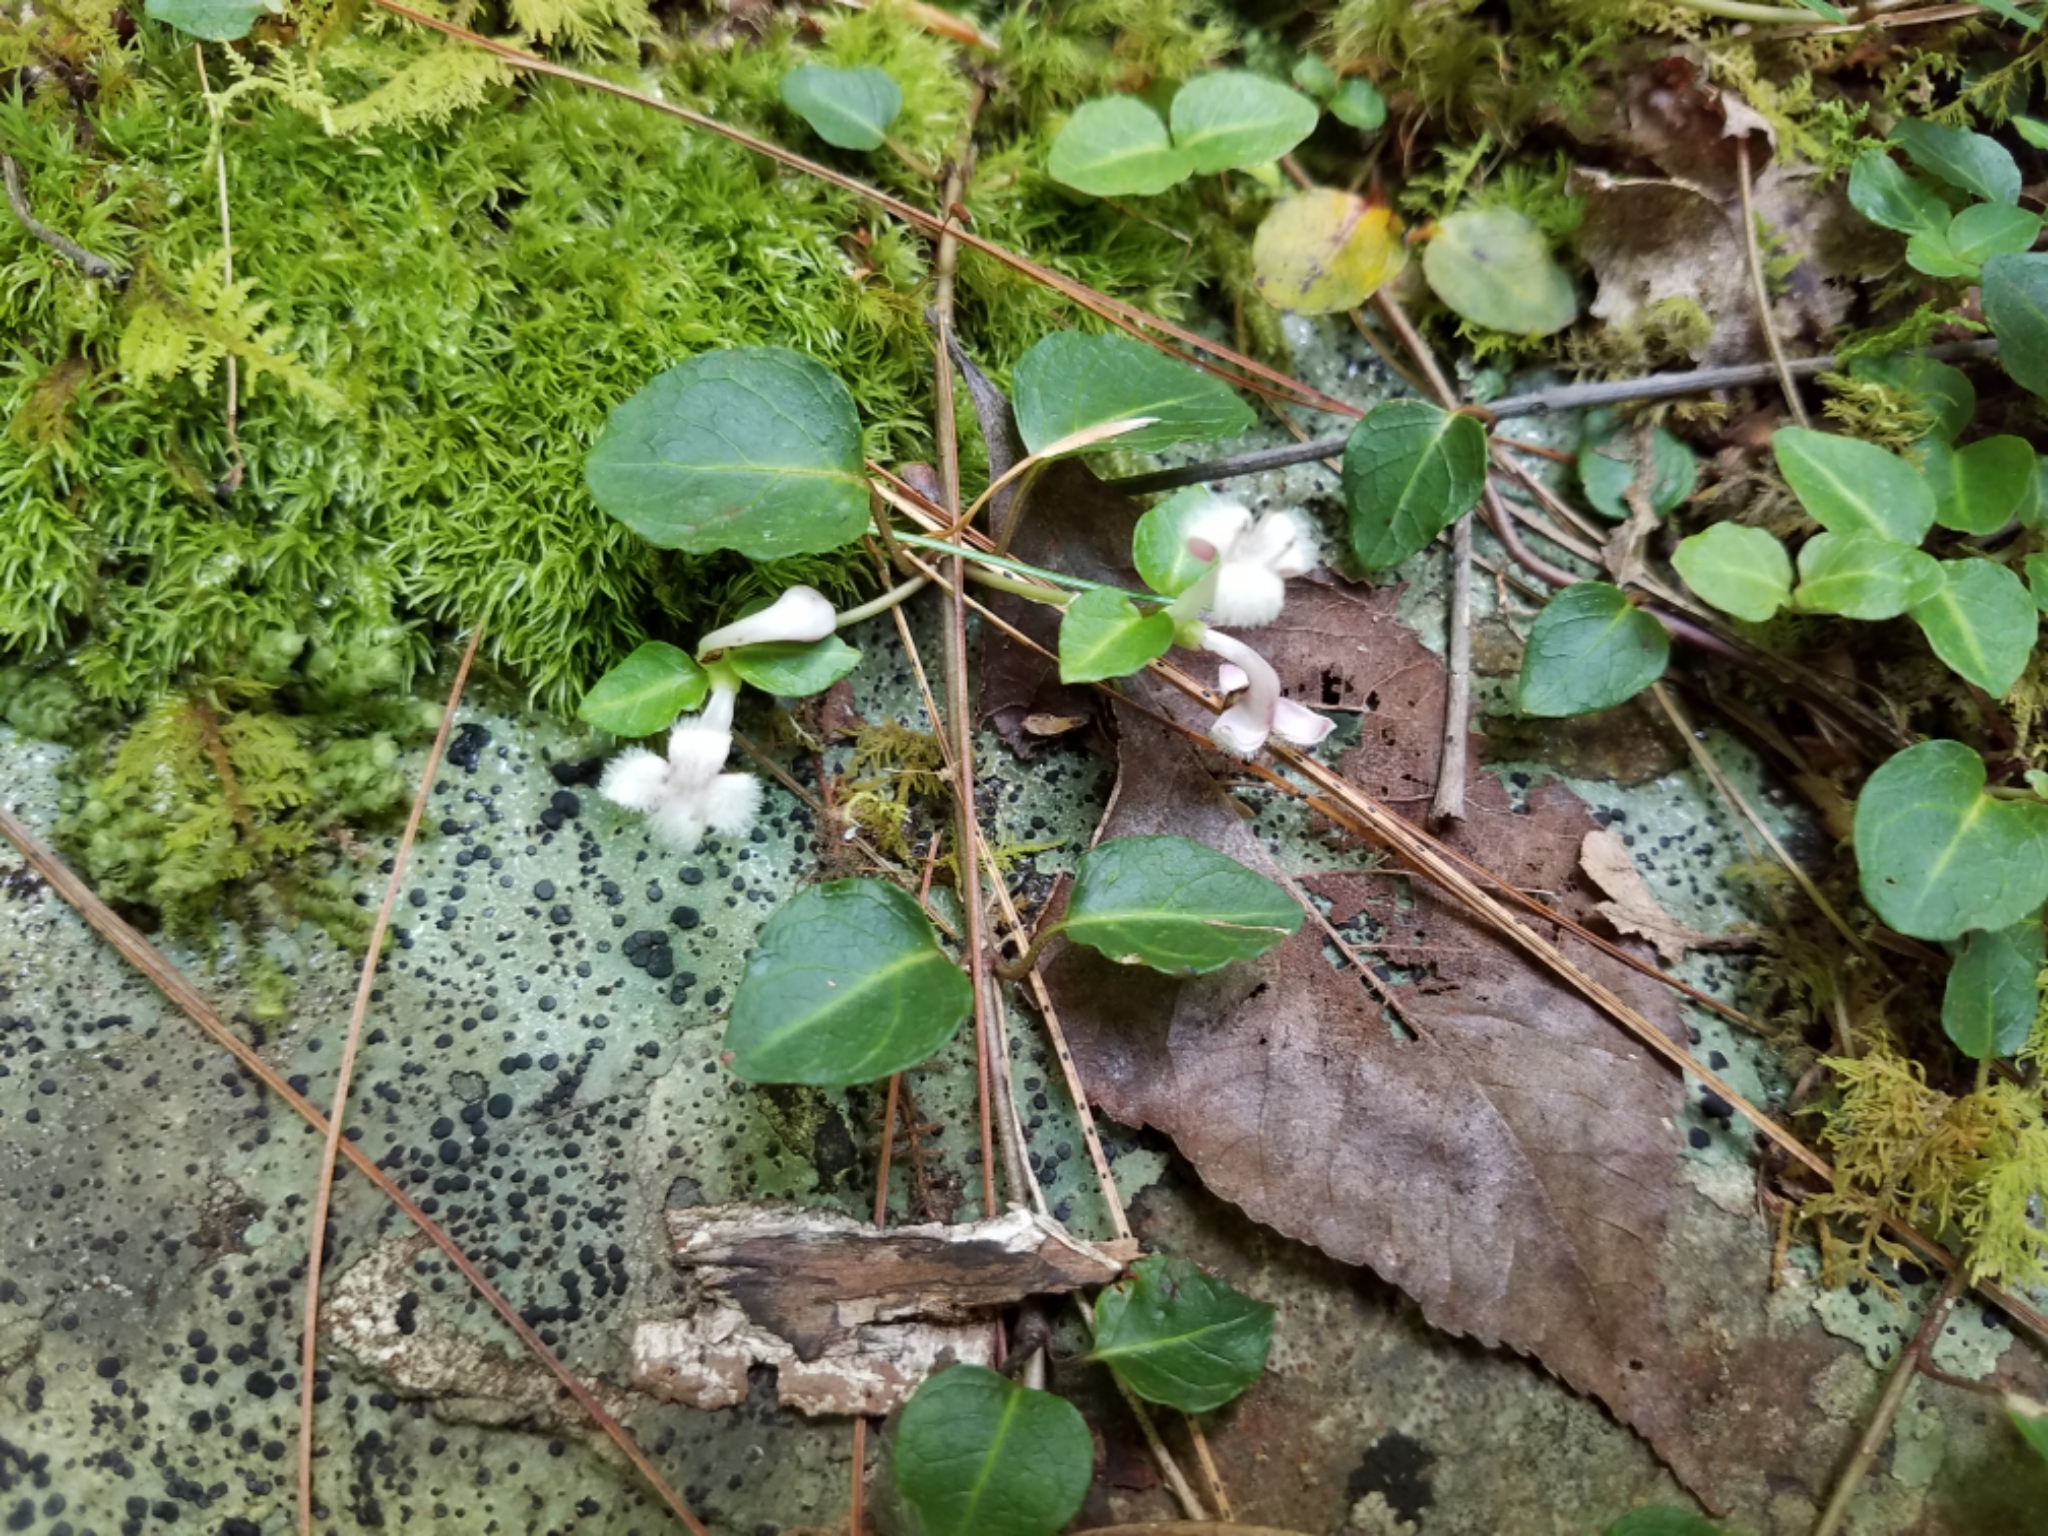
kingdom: Plantae
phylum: Tracheophyta
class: Magnoliopsida
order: Gentianales
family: Rubiaceae
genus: Mitchella
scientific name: Mitchella repens
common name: Partridge-berry
